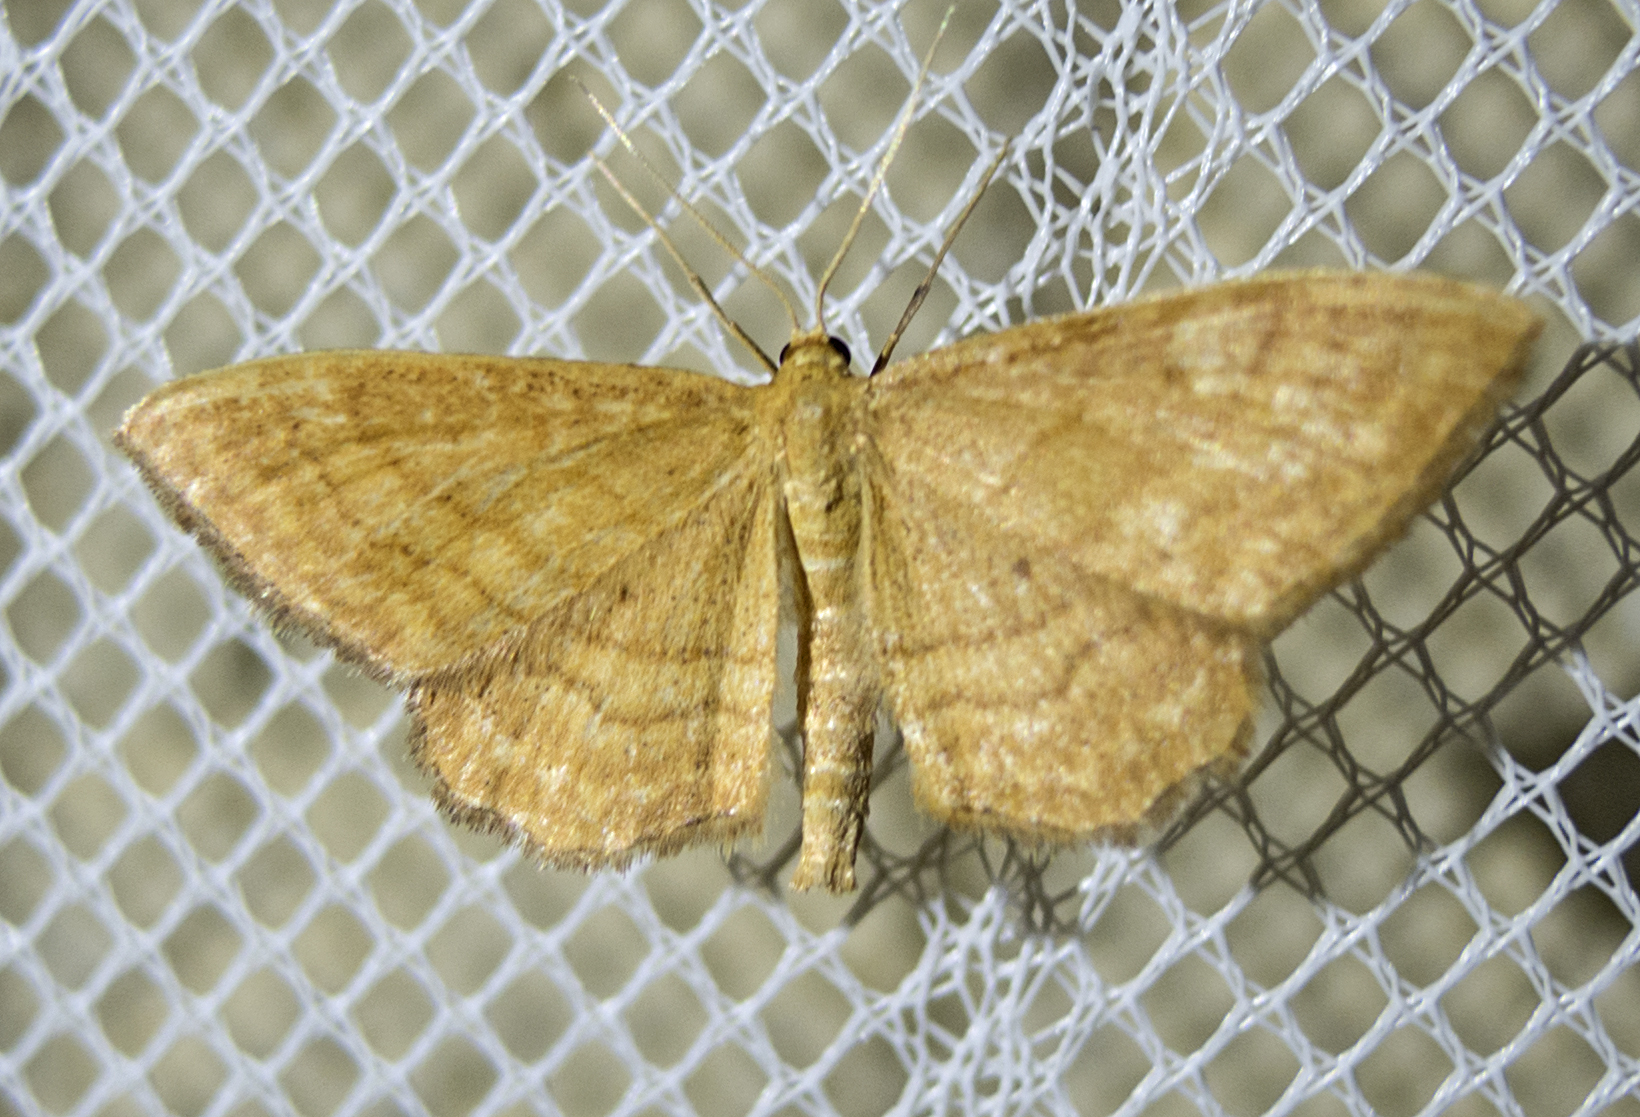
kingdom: Animalia
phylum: Arthropoda
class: Insecta
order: Lepidoptera
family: Geometridae
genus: Idaea
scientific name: Idaea ochrata
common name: Bright wave
